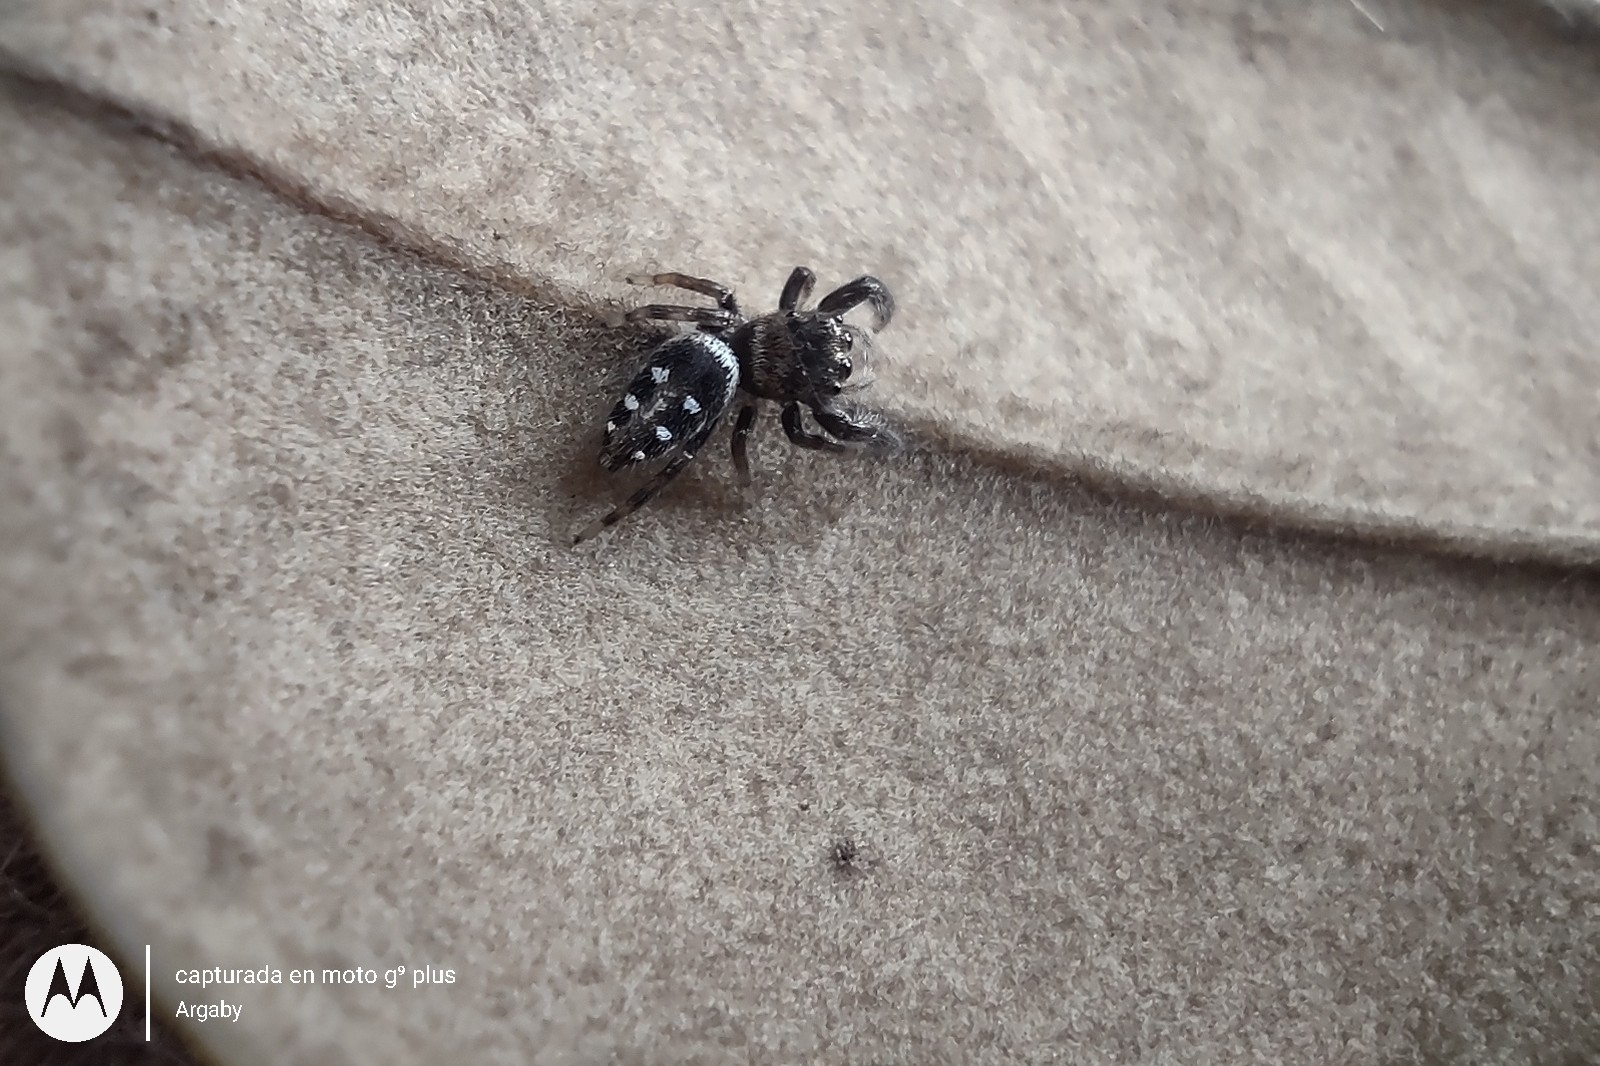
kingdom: Animalia
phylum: Arthropoda
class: Arachnida
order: Araneae
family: Salticidae
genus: Dendryphantes
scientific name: Dendryphantes mordax
